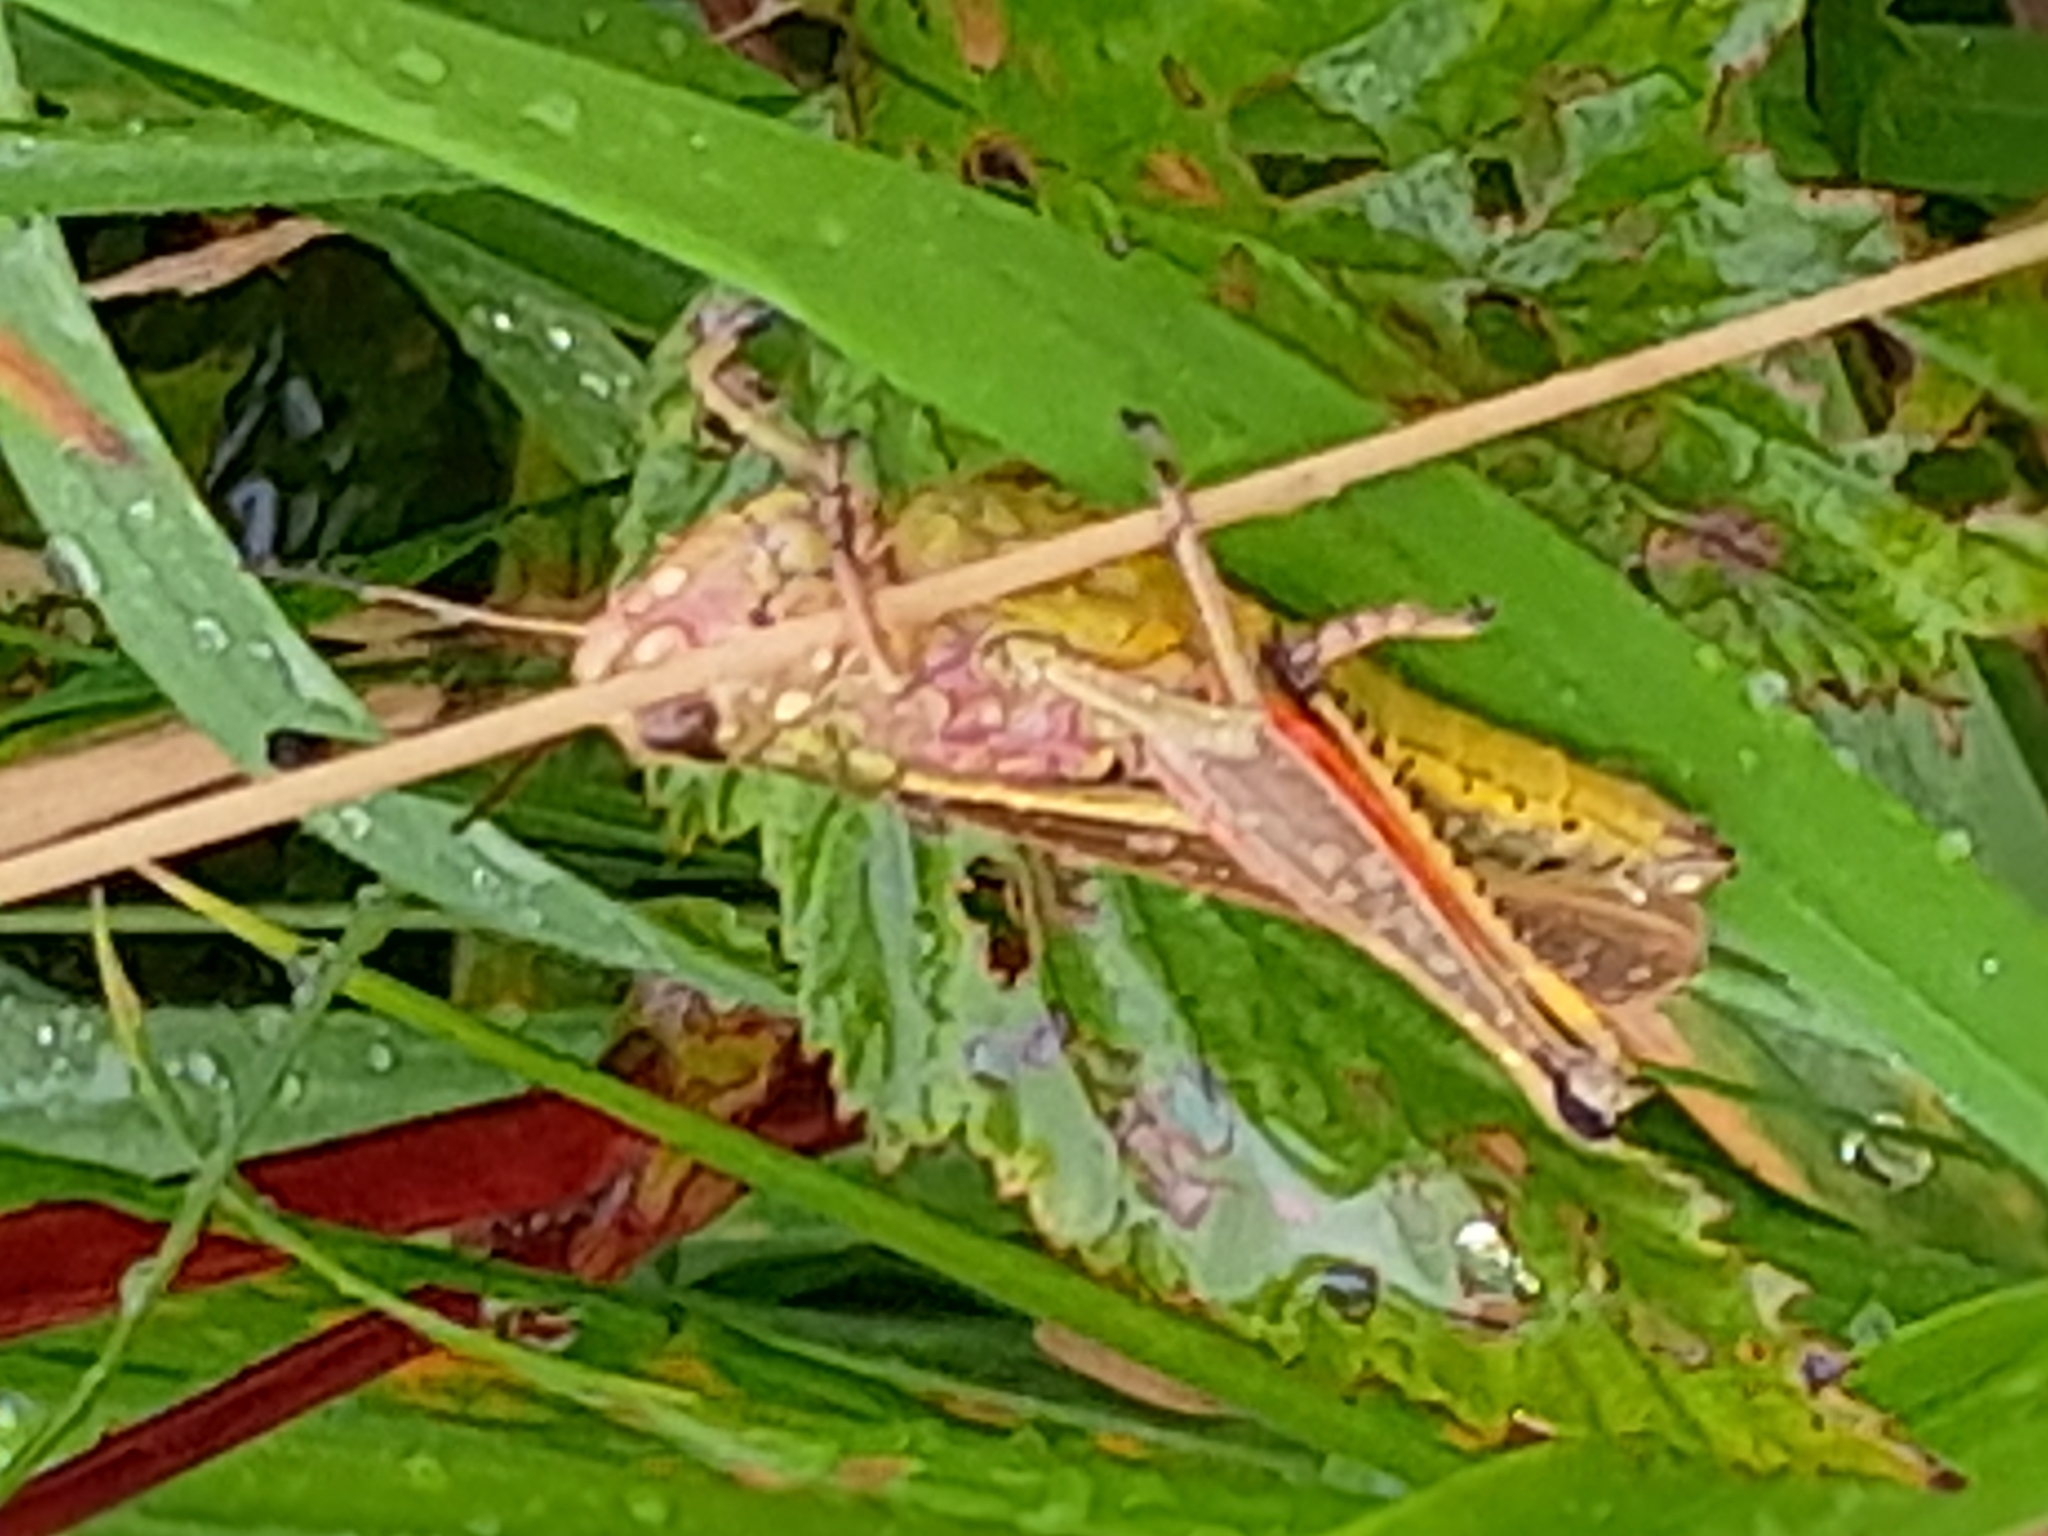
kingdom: Animalia
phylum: Arthropoda
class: Insecta
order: Orthoptera
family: Acrididae
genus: Stethophyma
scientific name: Stethophyma grossum
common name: Large marsh grasshopper
